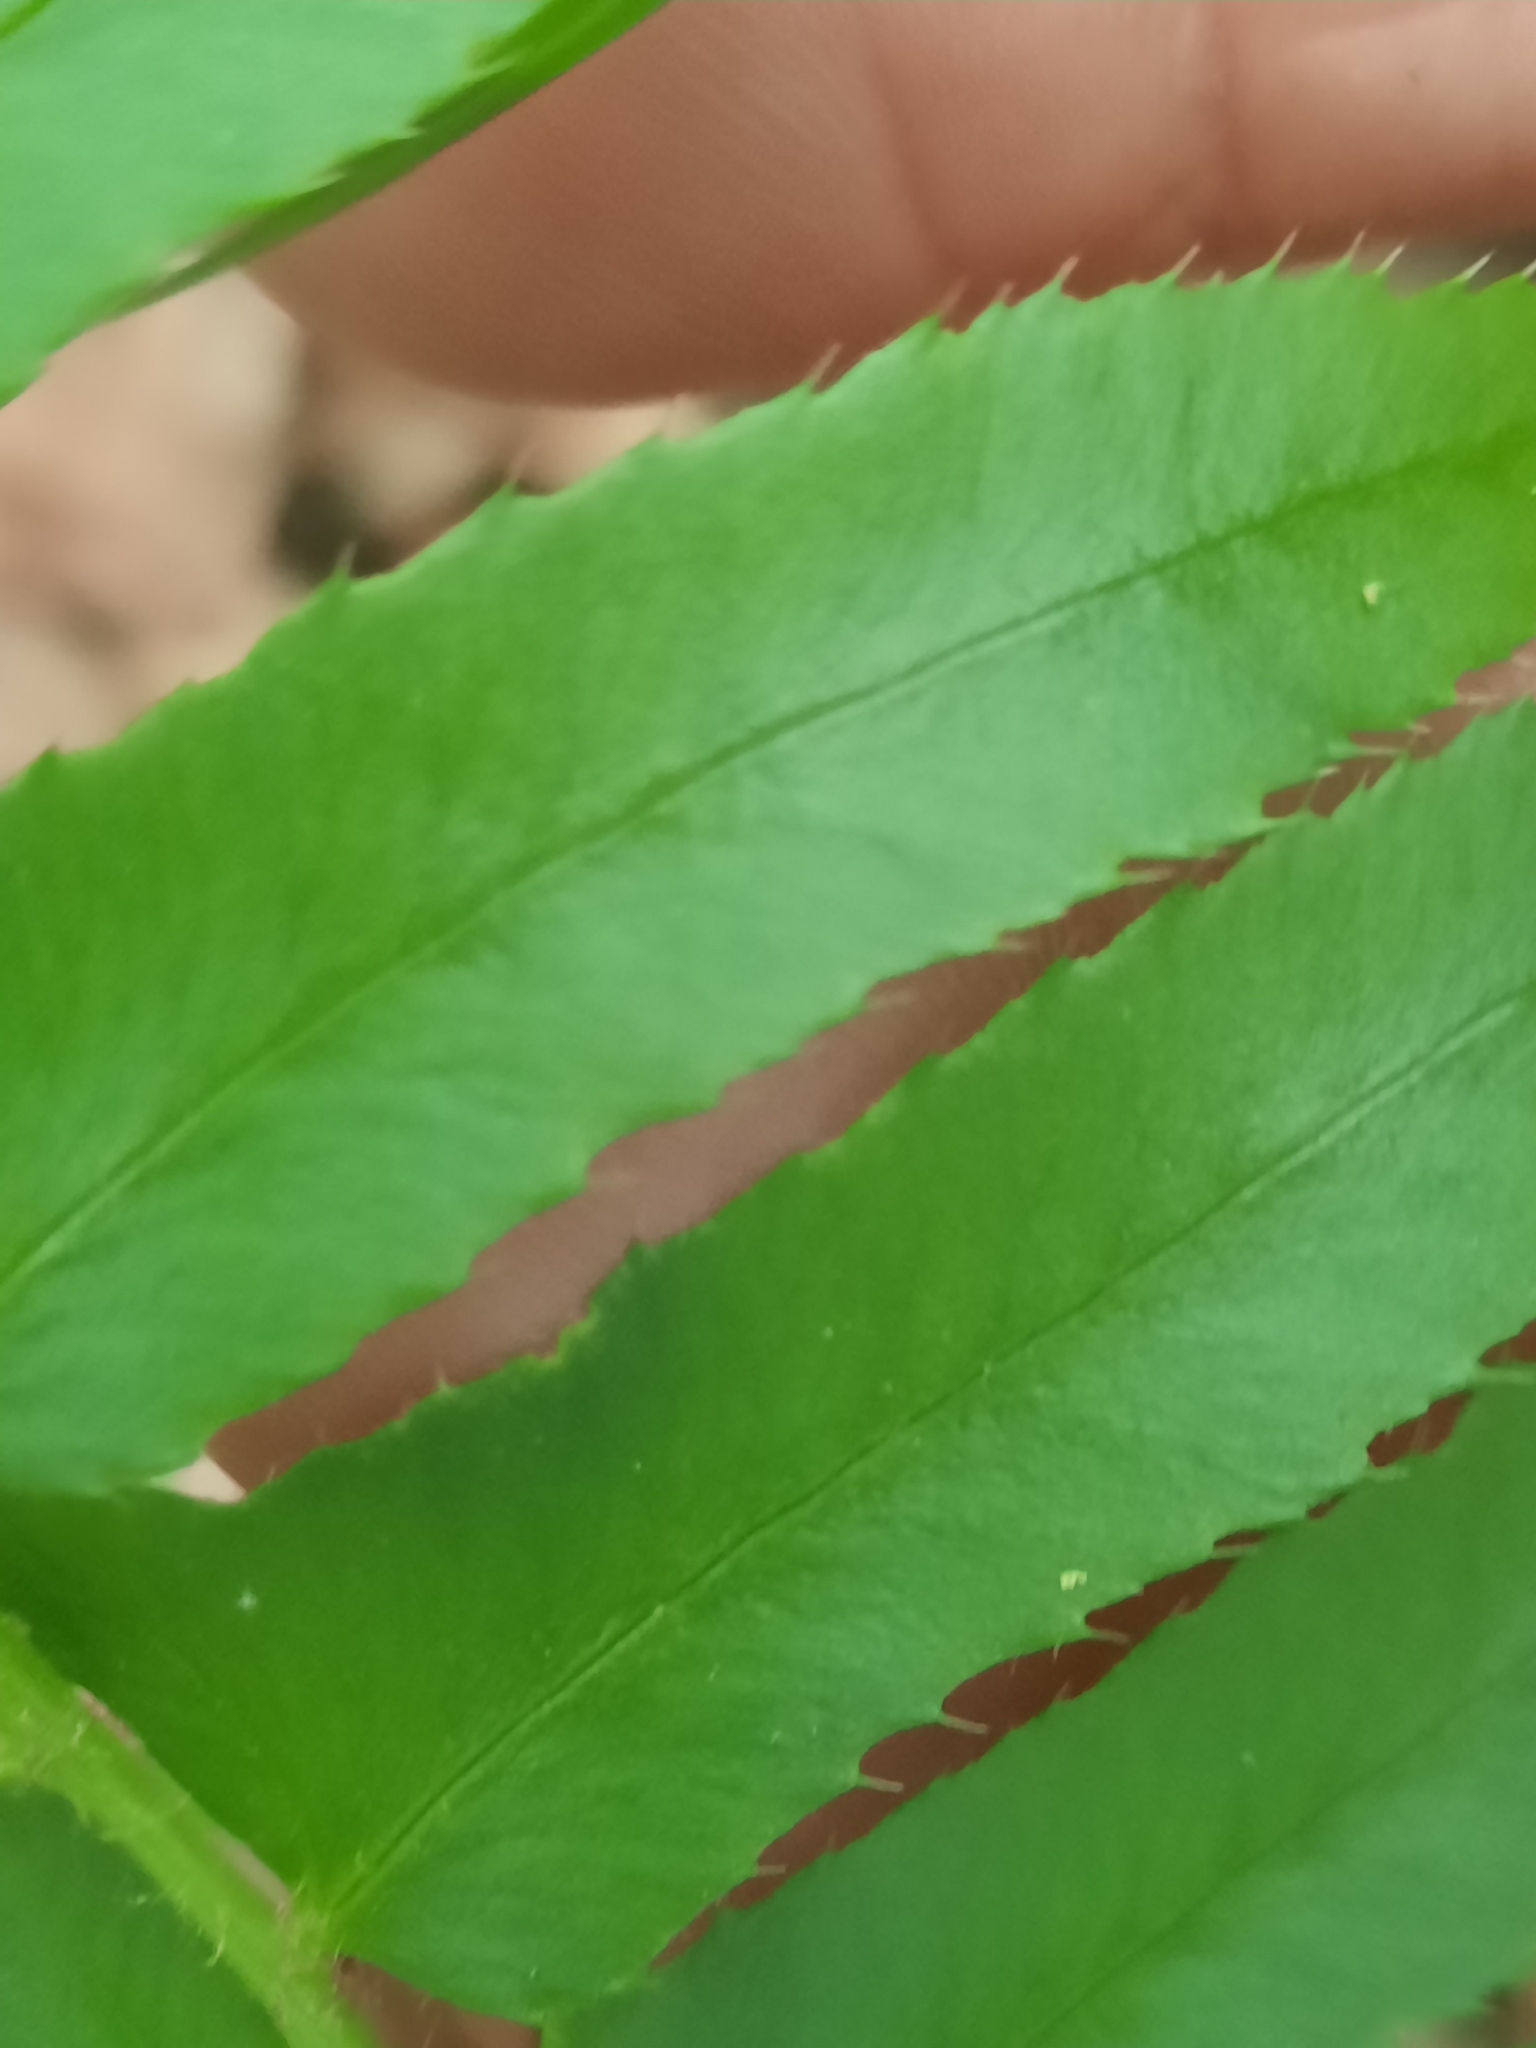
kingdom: Plantae
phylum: Tracheophyta
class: Polypodiopsida
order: Polypodiales
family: Dryopteridaceae
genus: Polystichum
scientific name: Polystichum acrostichoides
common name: Christmas fern
